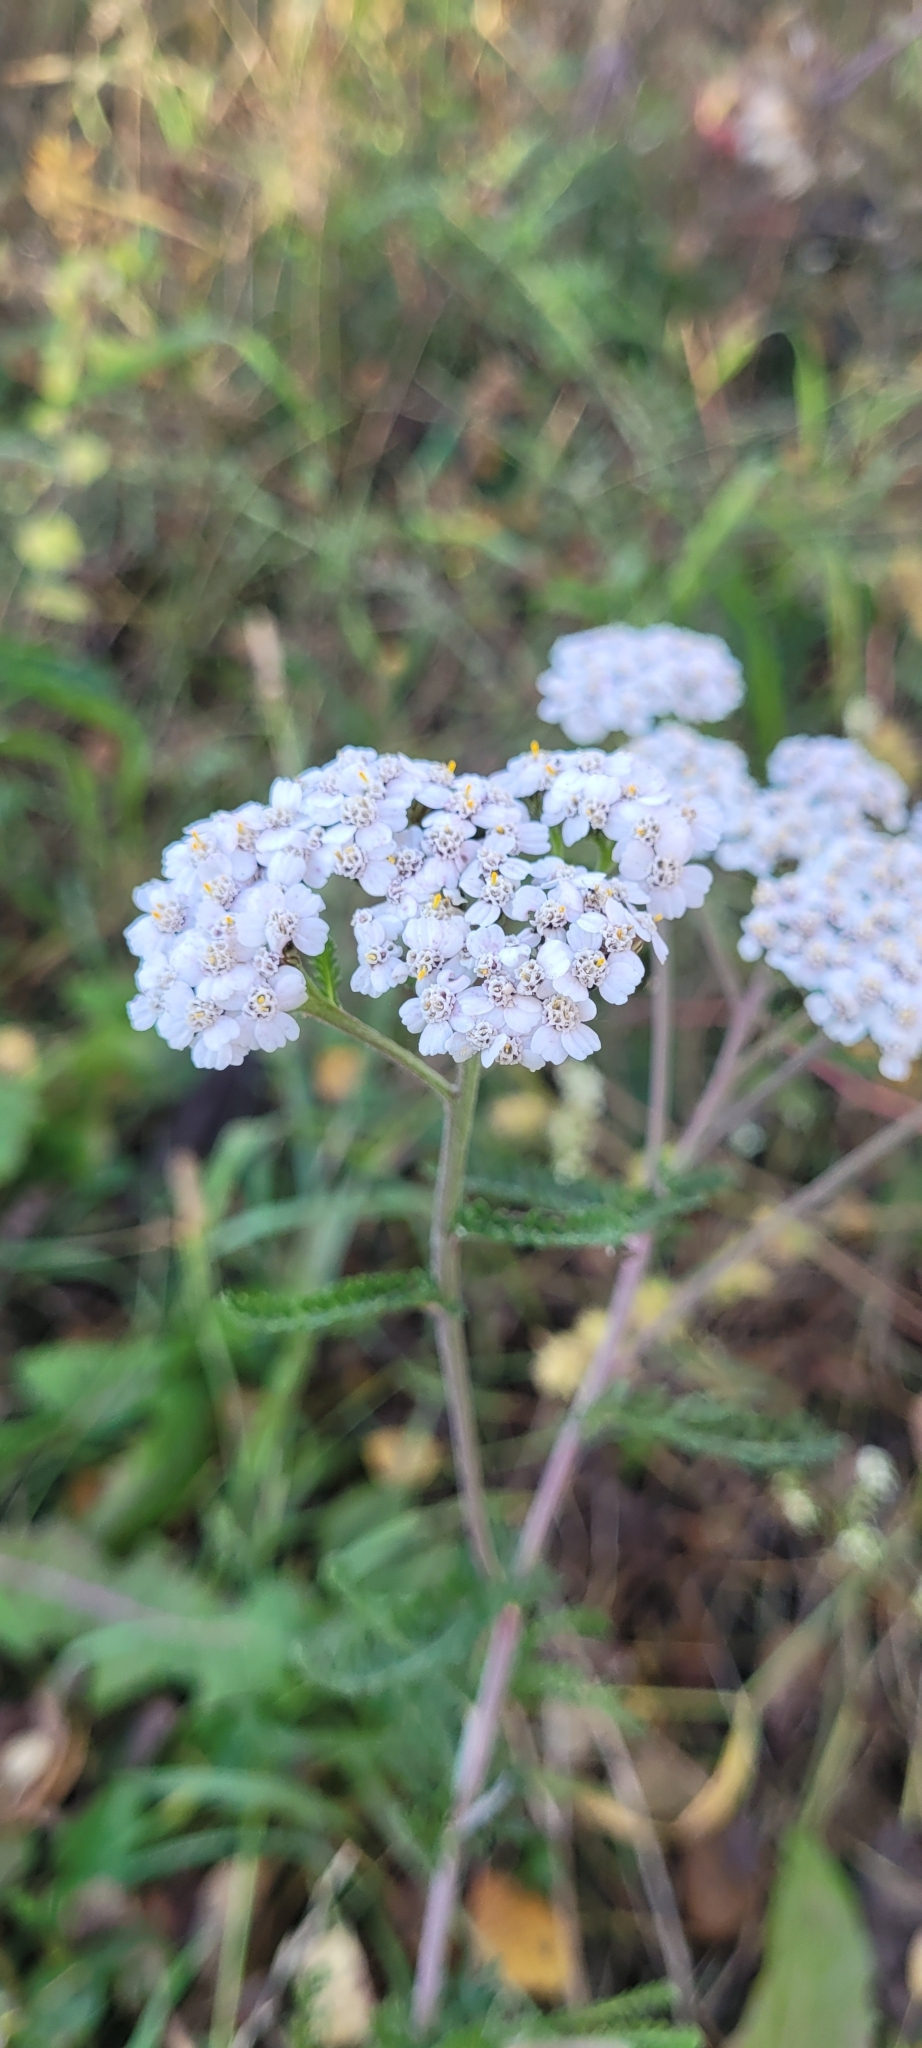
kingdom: Plantae
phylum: Tracheophyta
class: Magnoliopsida
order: Asterales
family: Asteraceae
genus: Achillea
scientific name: Achillea millefolium
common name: Yarrow
